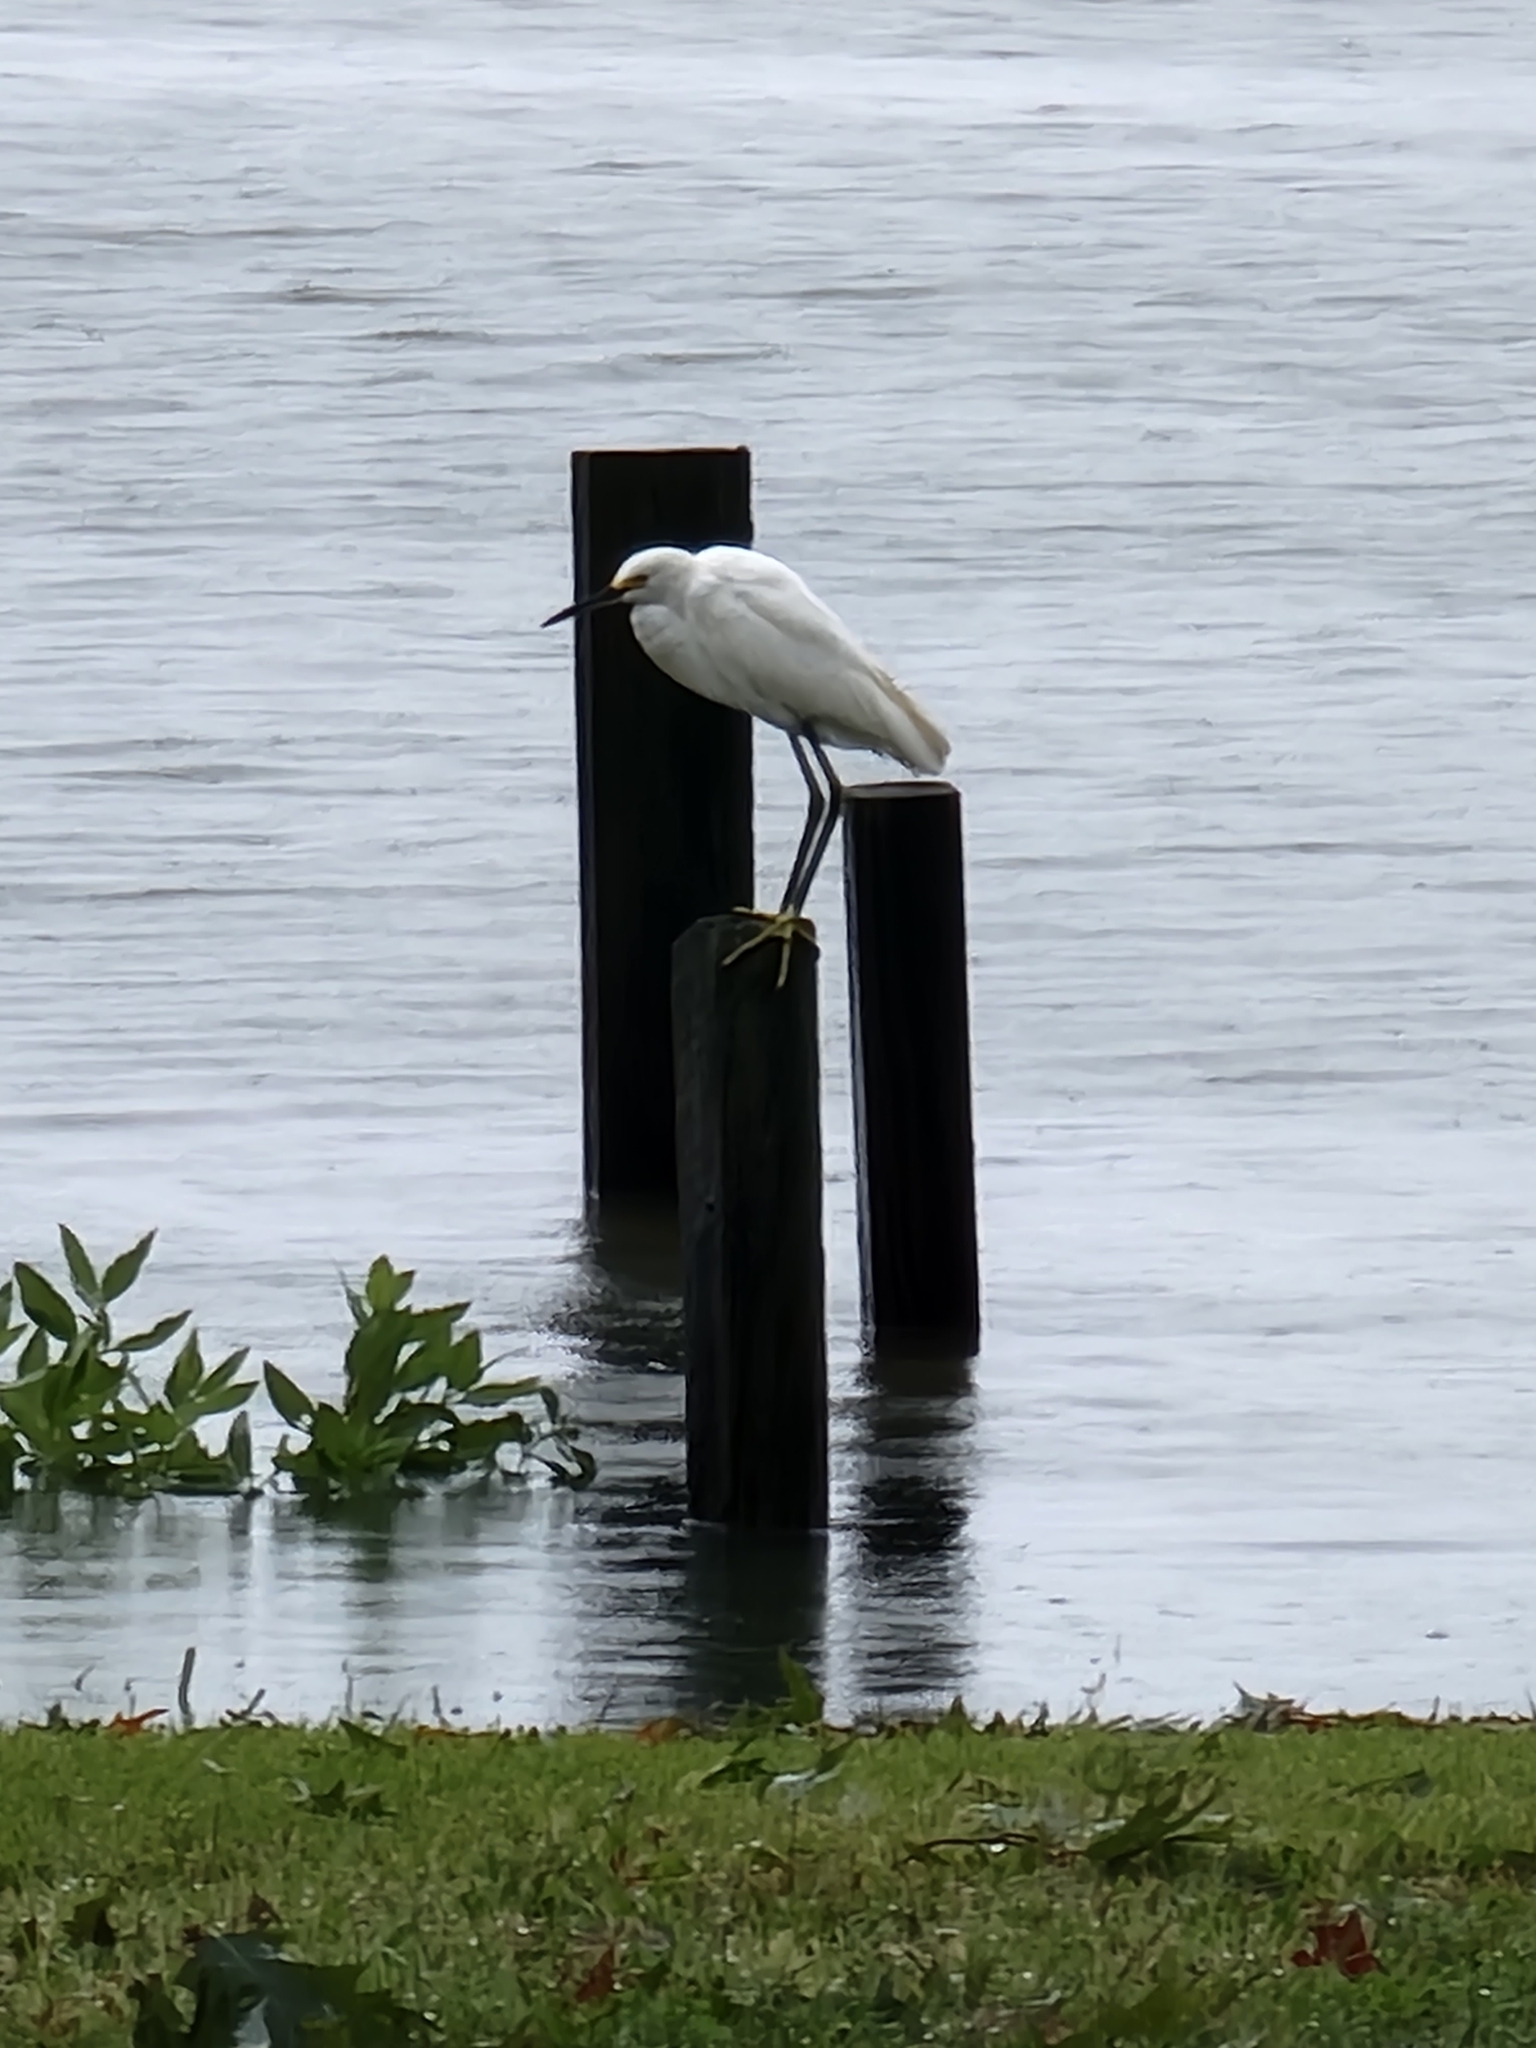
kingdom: Animalia
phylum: Chordata
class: Aves
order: Pelecaniformes
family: Ardeidae
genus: Egretta
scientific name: Egretta thula
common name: Snowy egret
